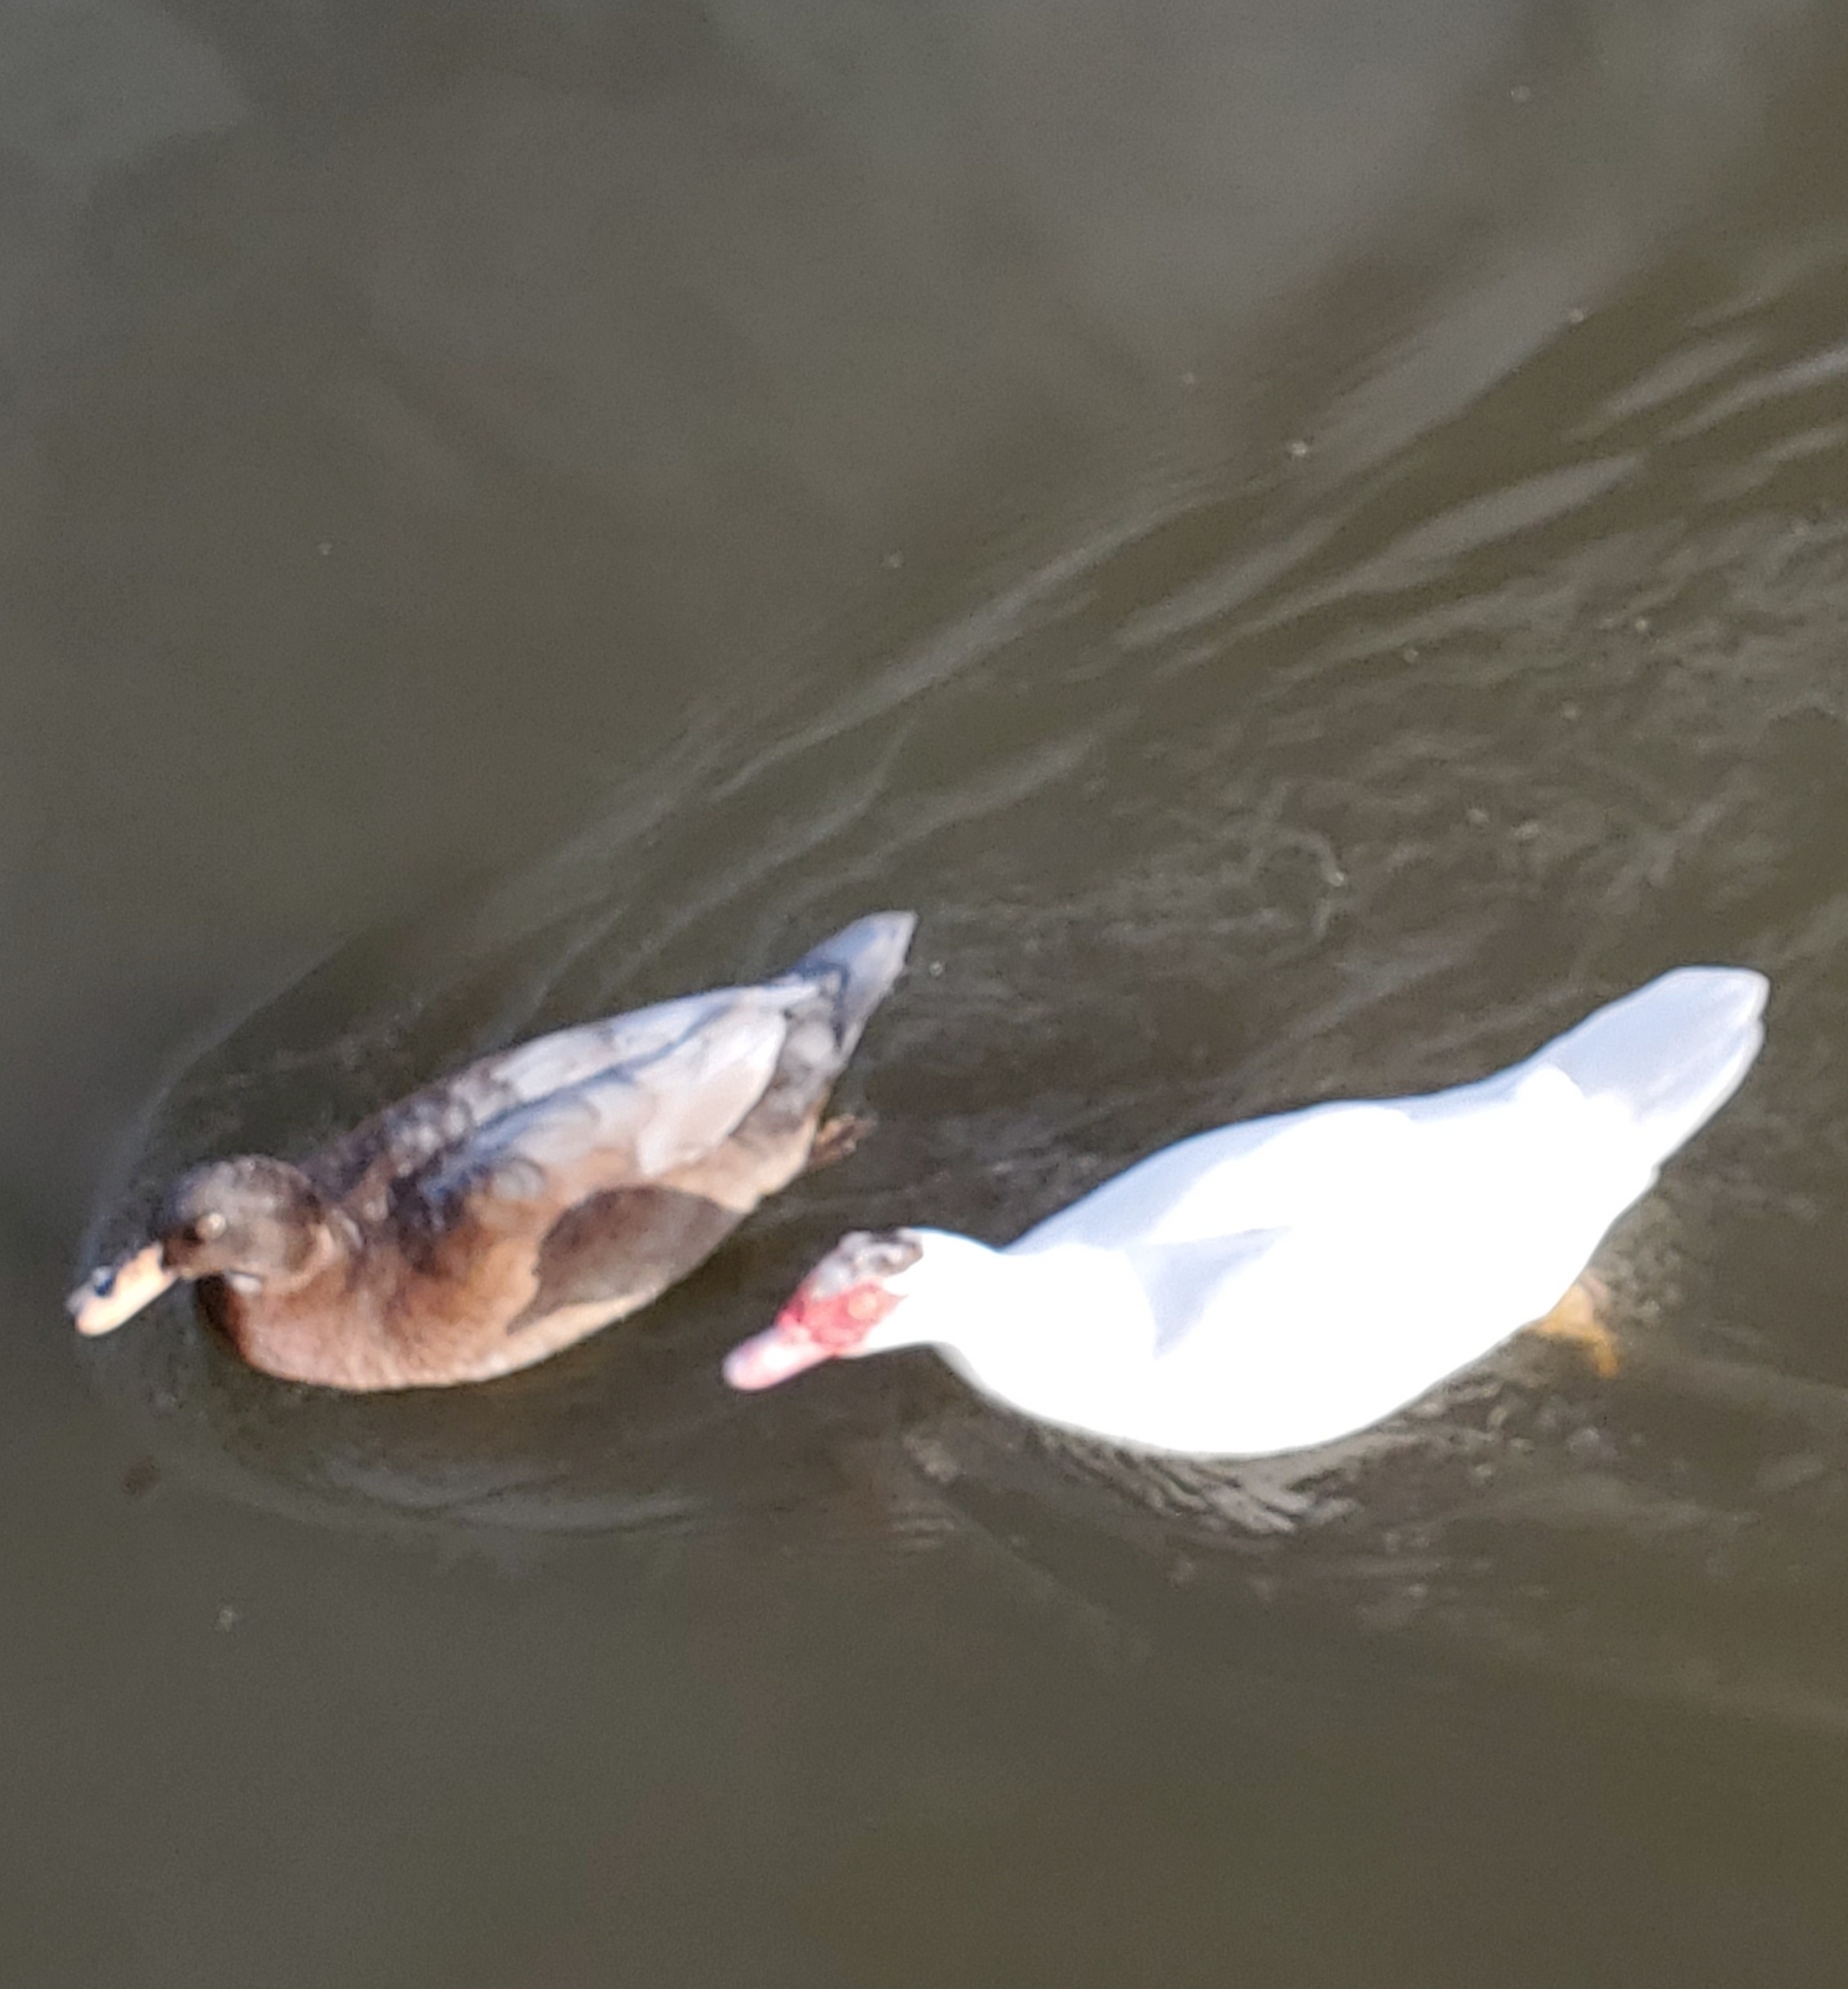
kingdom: Animalia
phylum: Chordata
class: Aves
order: Anseriformes
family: Anatidae
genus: Cairina
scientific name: Cairina moschata
